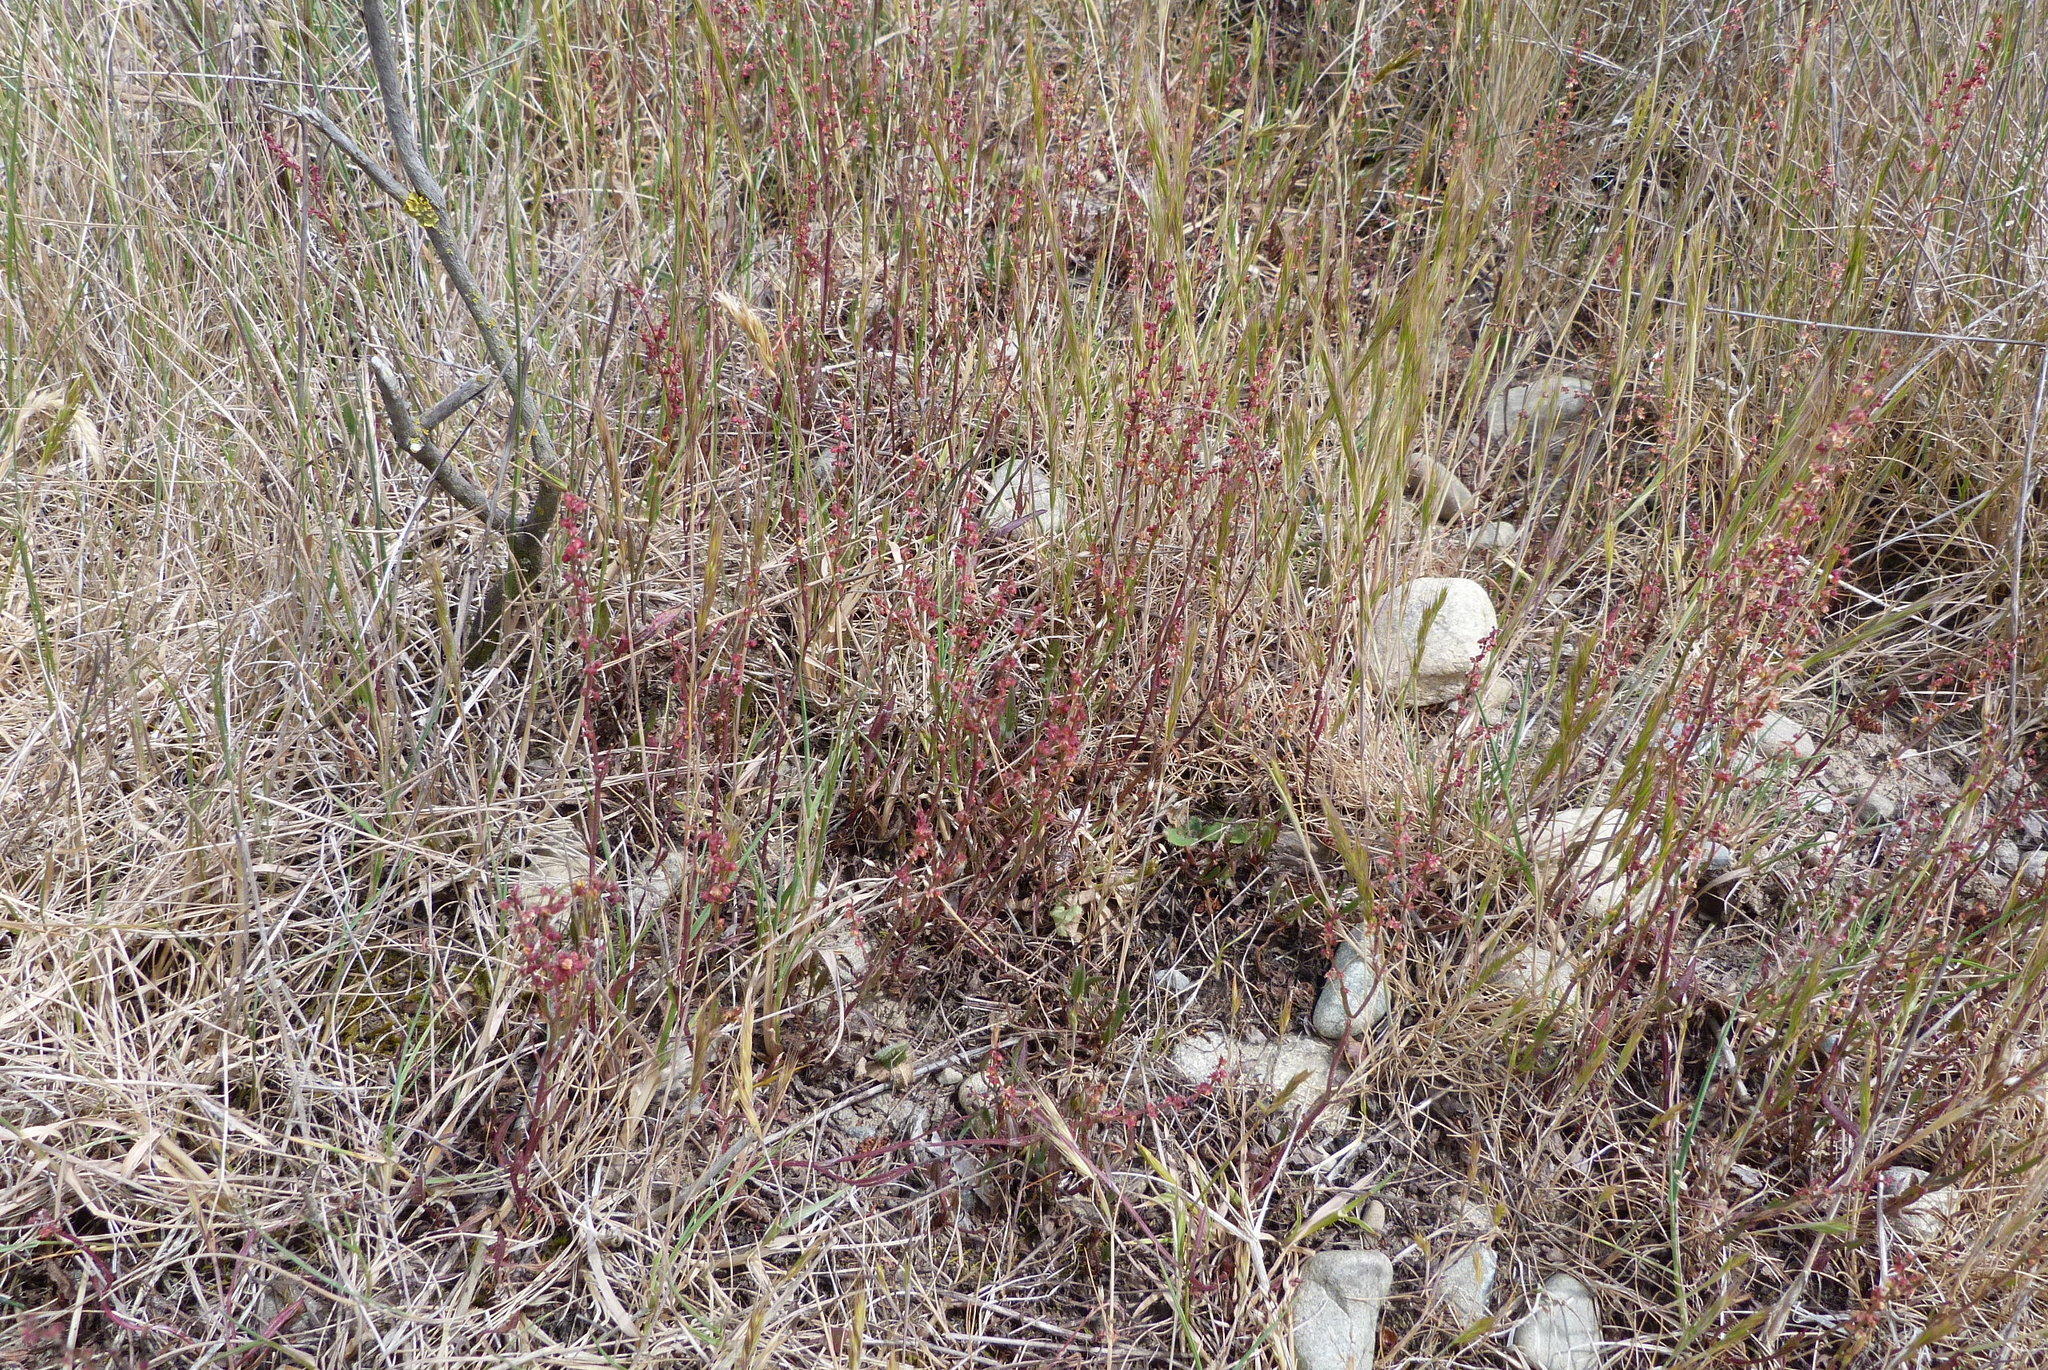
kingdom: Plantae
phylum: Tracheophyta
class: Magnoliopsida
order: Caryophyllales
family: Polygonaceae
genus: Rumex
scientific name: Rumex acetosella
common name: Common sheep sorrel
